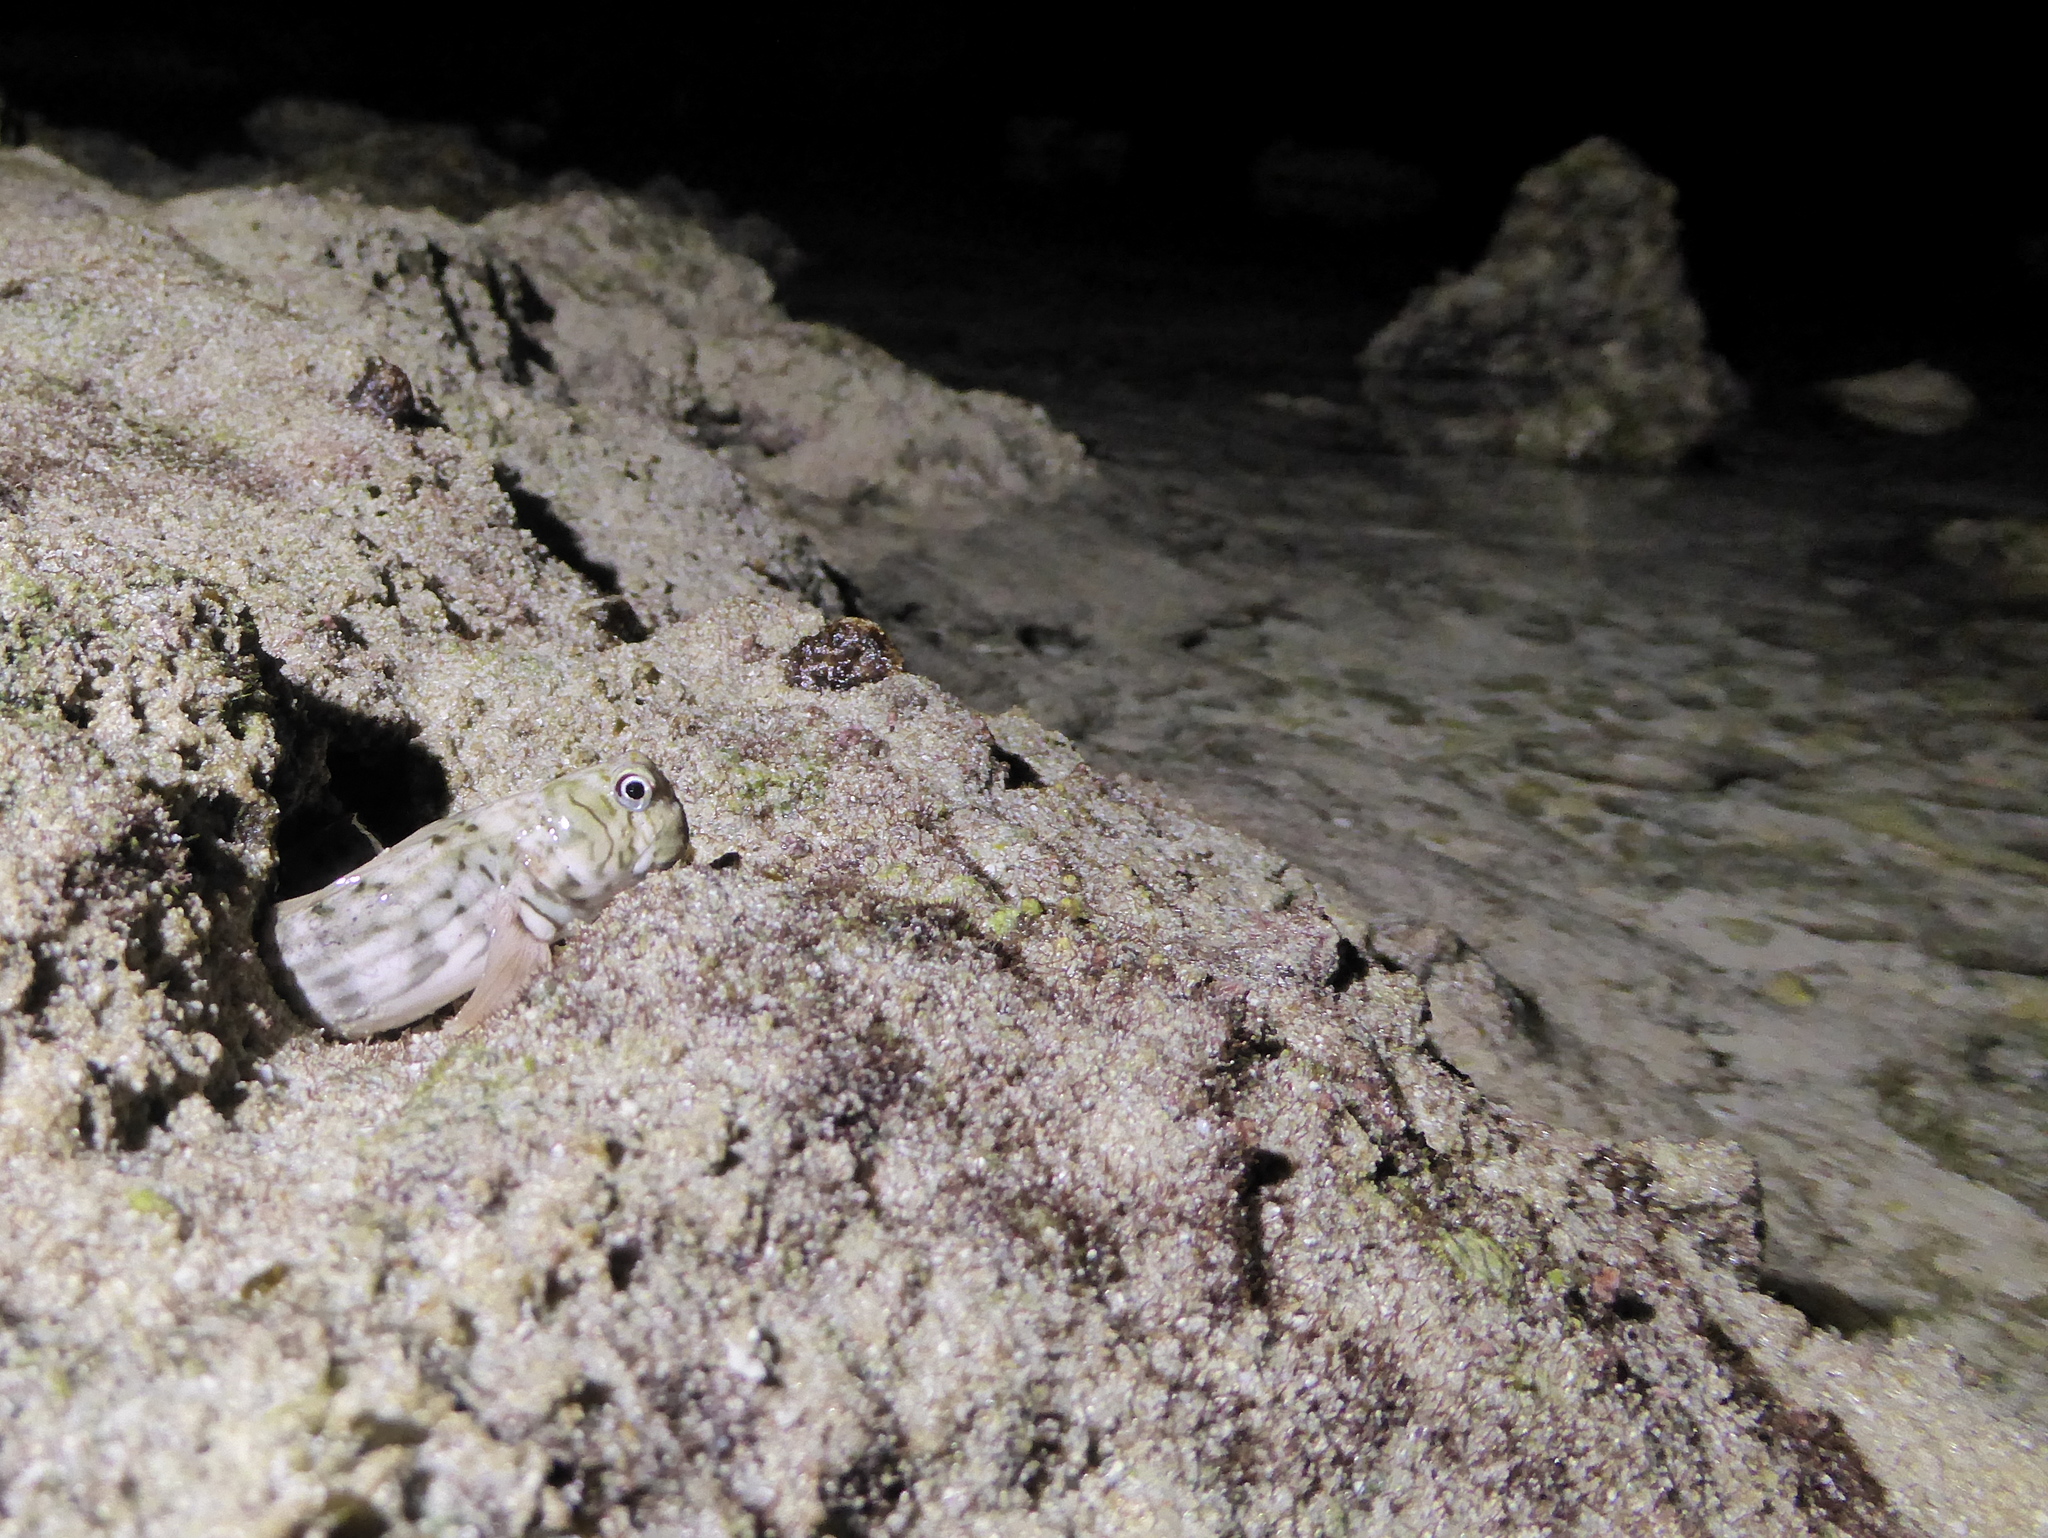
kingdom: Animalia
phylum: Chordata
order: Perciformes
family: Blenniidae
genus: Istiblennius
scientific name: Istiblennius lineatus
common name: Black-lined blenny
